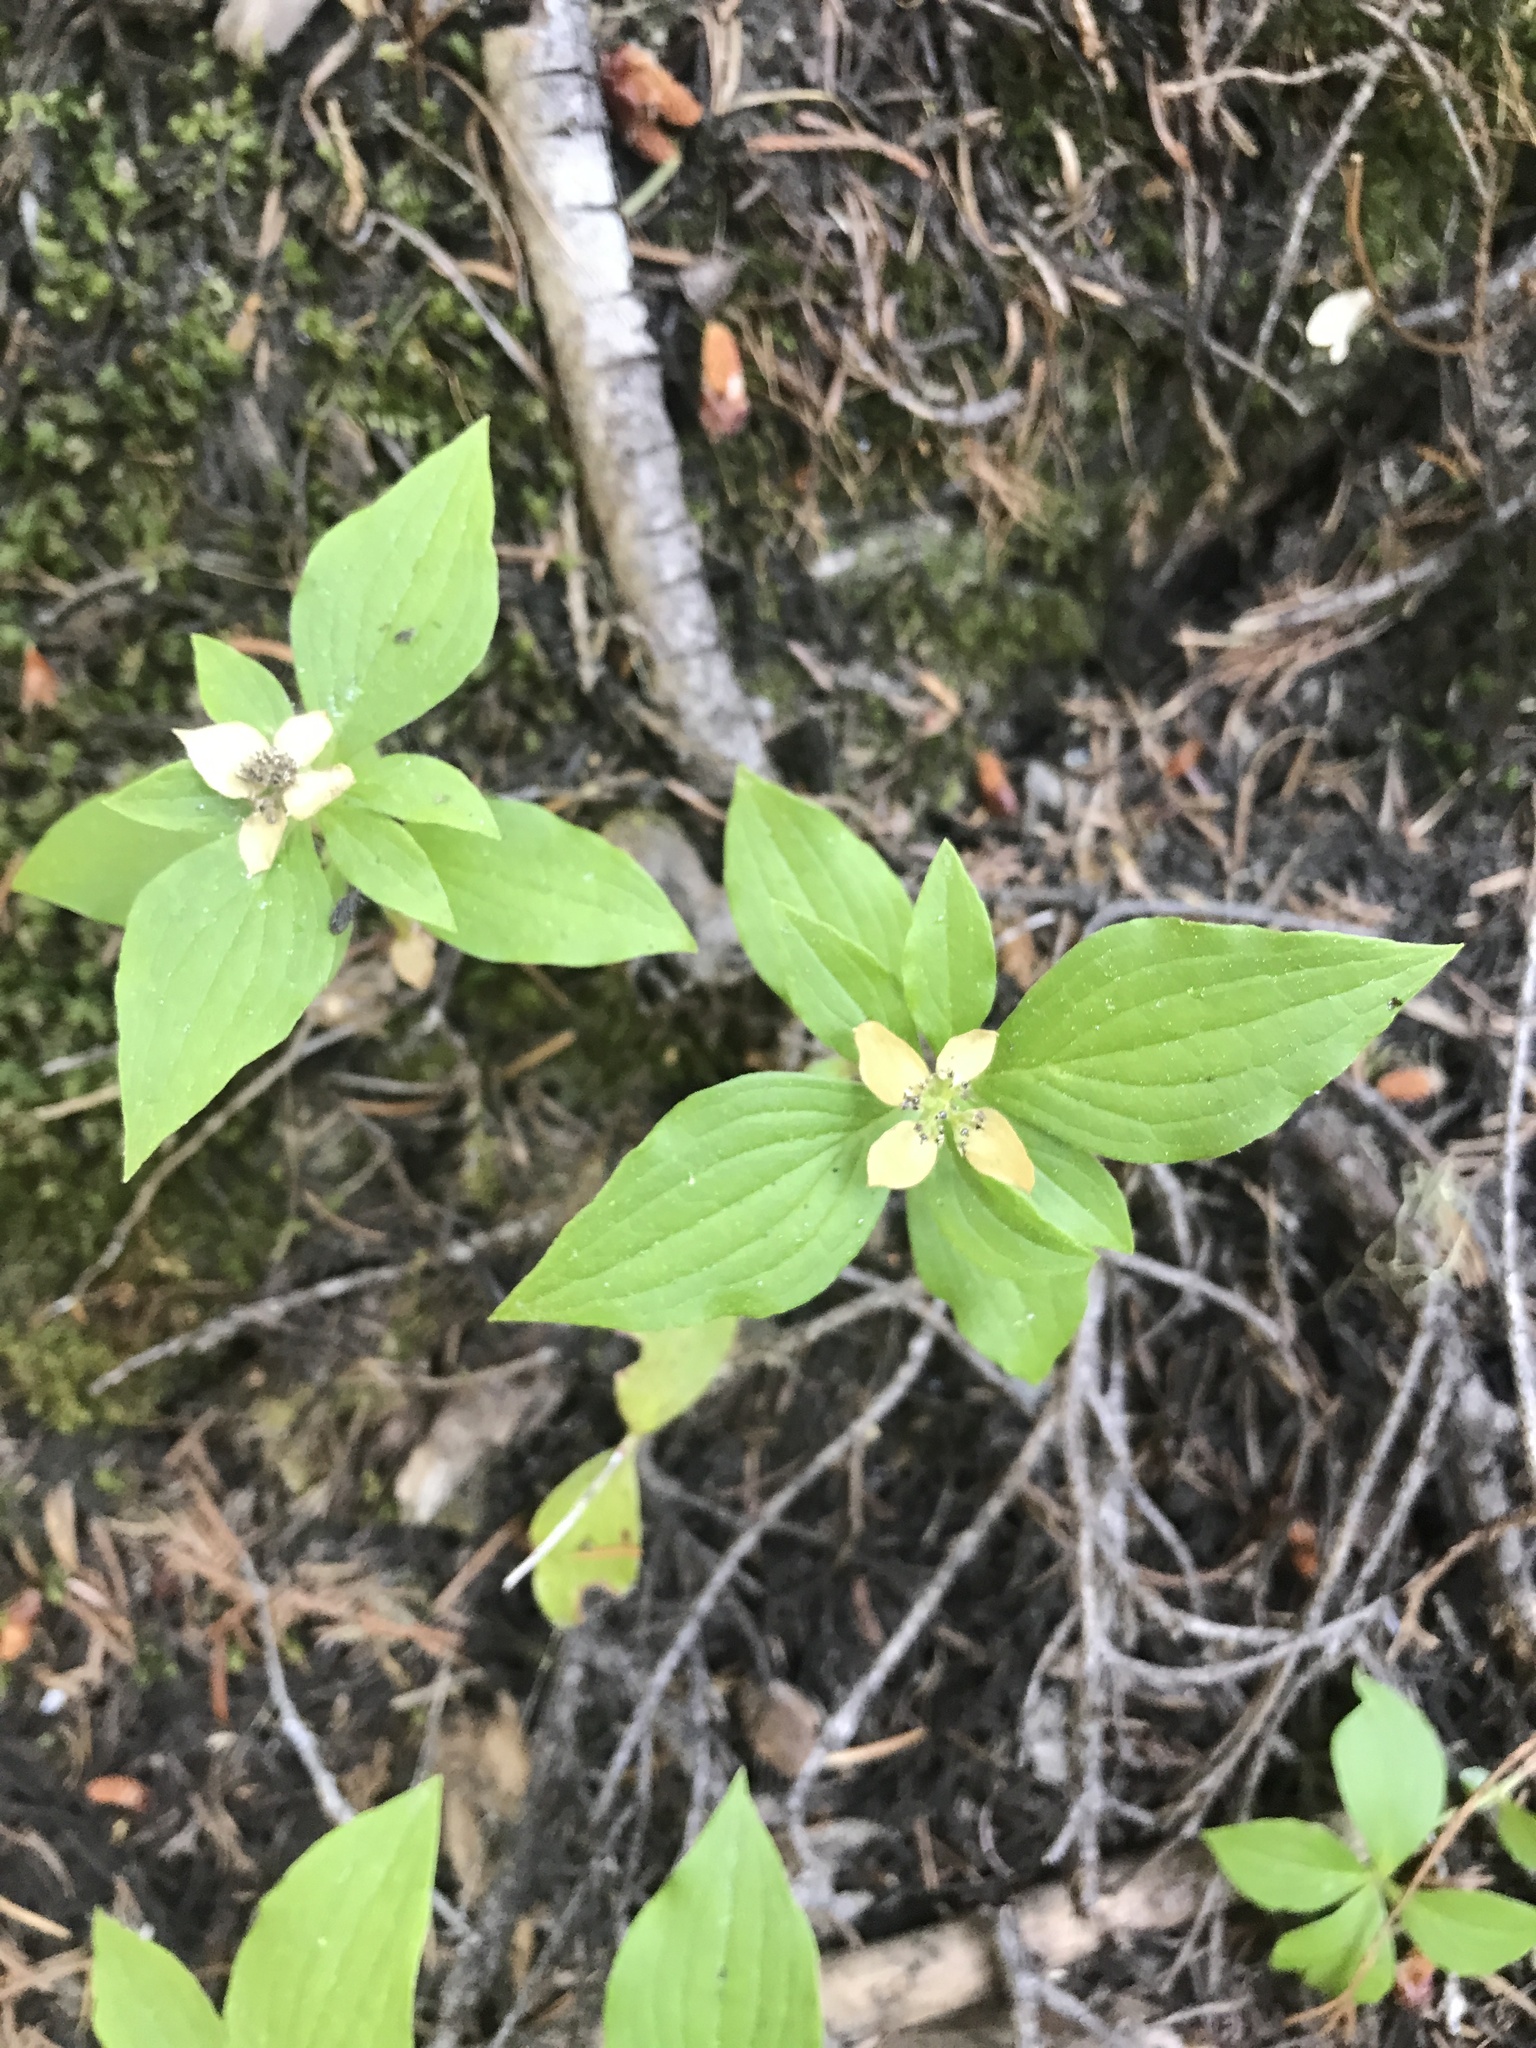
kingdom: Plantae
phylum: Tracheophyta
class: Magnoliopsida
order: Cornales
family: Cornaceae
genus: Cornus
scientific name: Cornus unalaschkensis
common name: Alaska bunchberry
